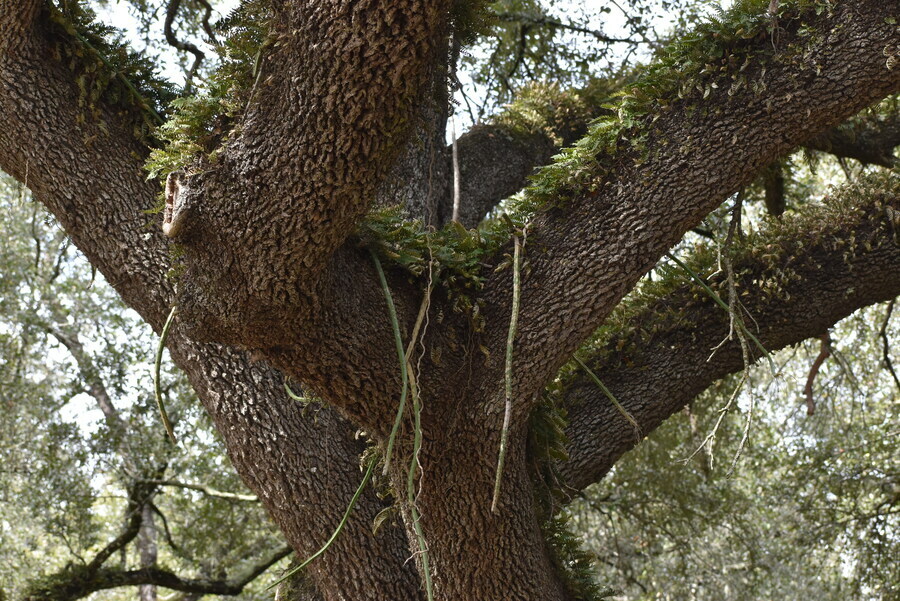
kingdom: Plantae
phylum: Tracheophyta
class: Magnoliopsida
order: Caryophyllales
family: Cactaceae
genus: Selenicereus
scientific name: Selenicereus spinulosus
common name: Nightblooming cereus
